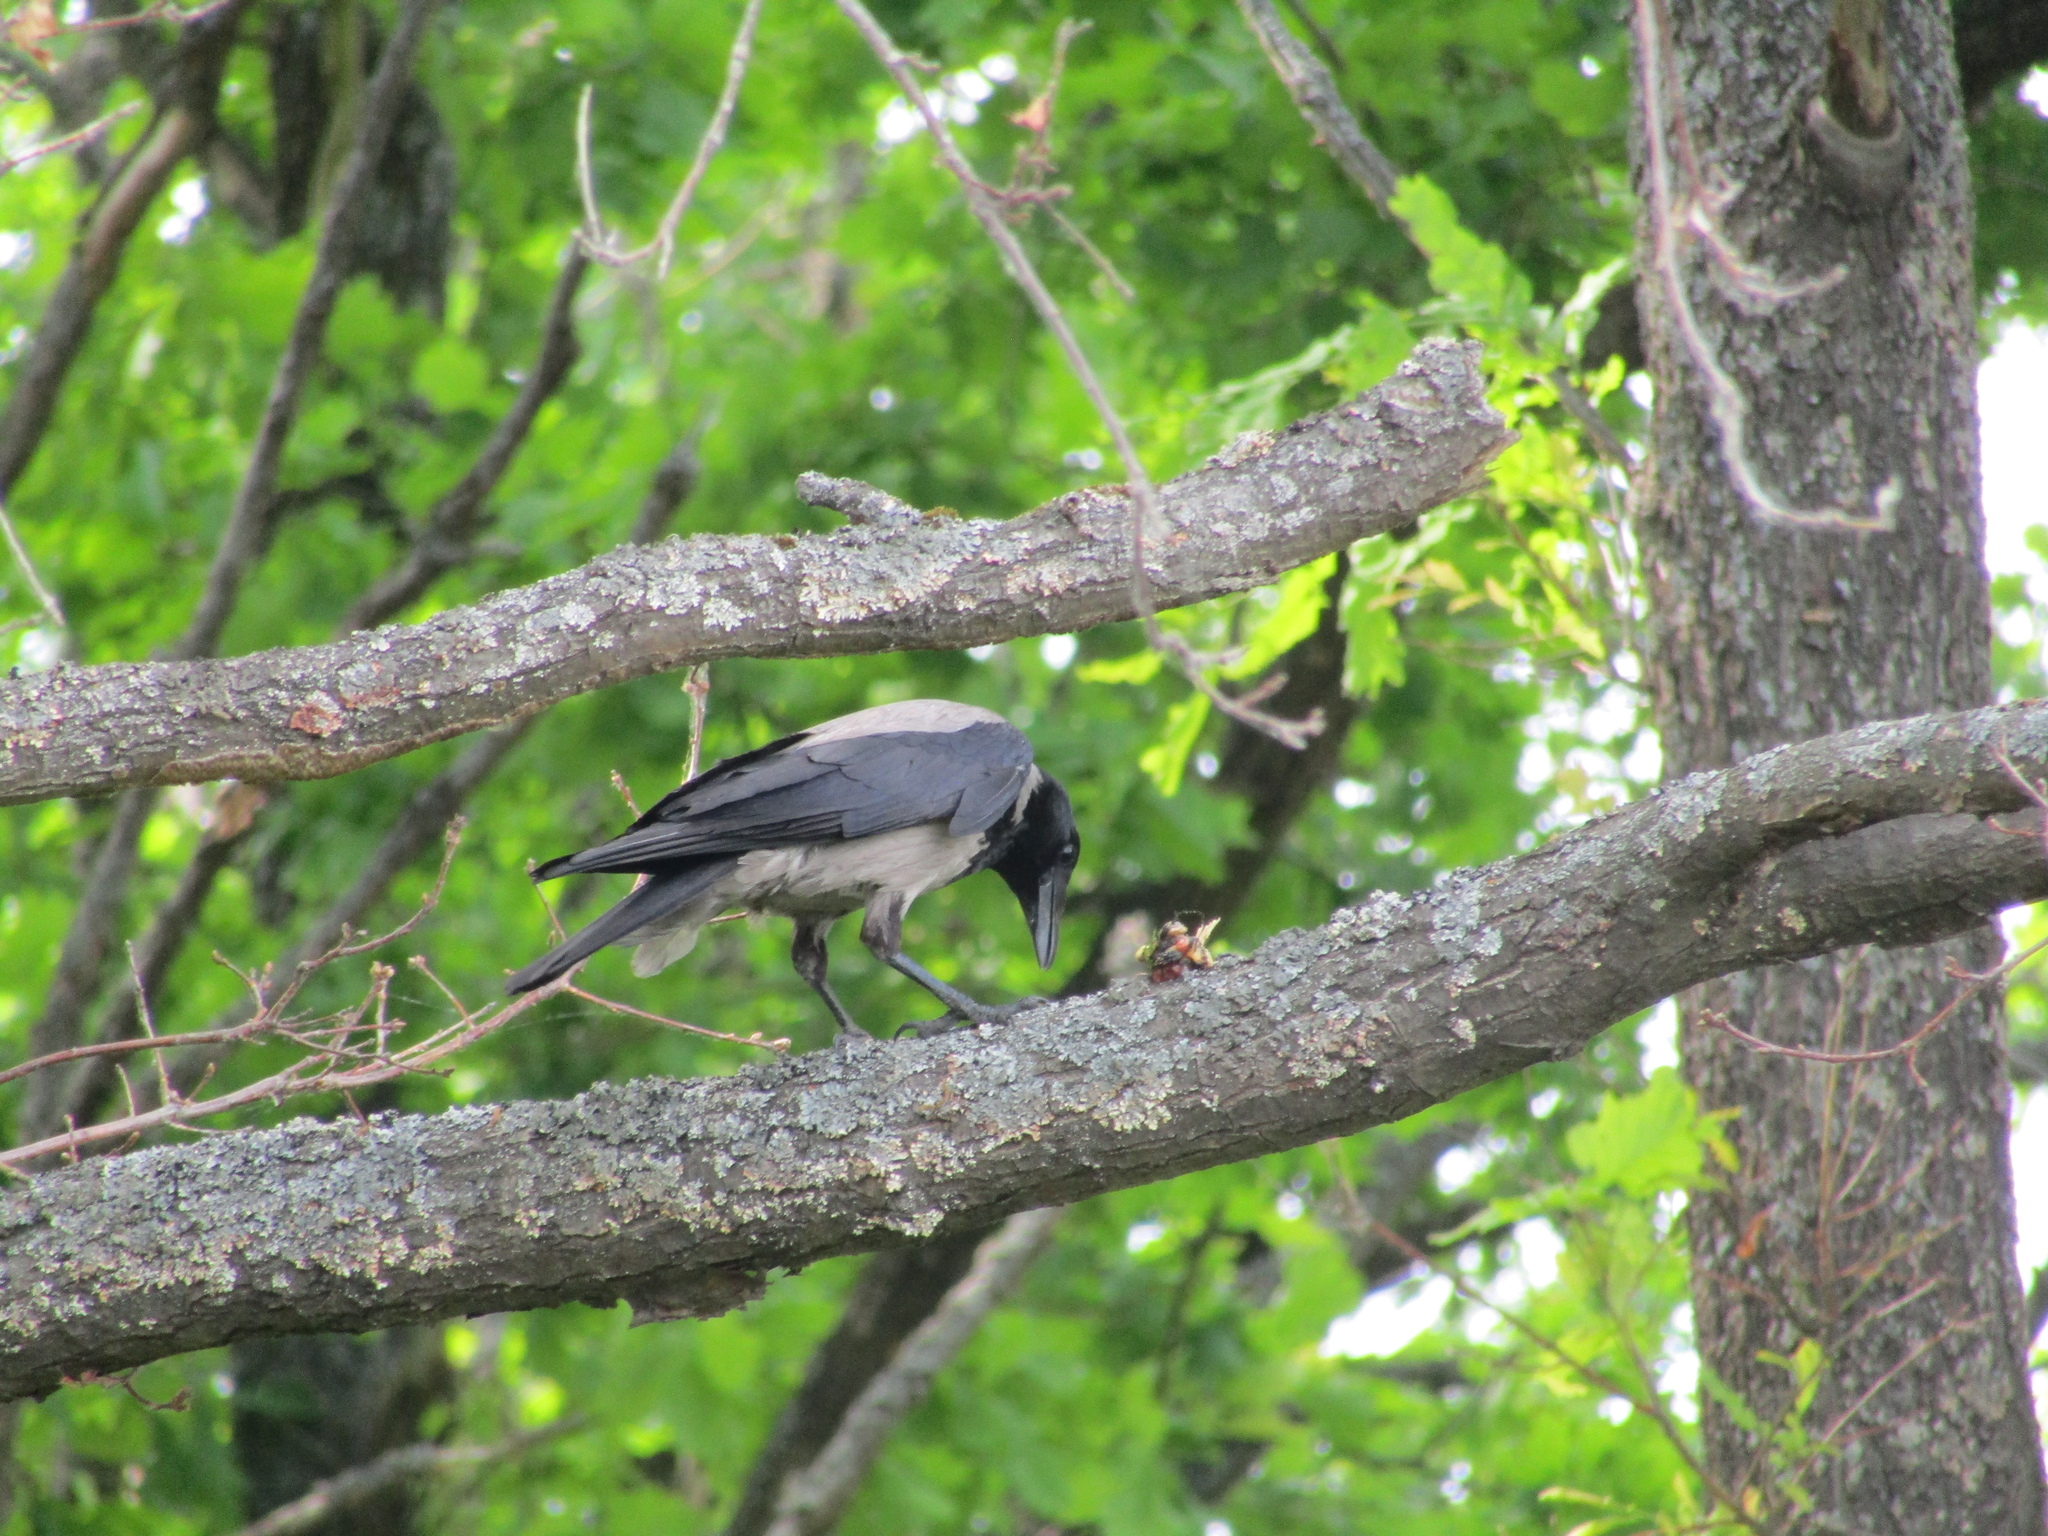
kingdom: Animalia
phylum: Chordata
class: Aves
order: Passeriformes
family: Corvidae
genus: Corvus
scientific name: Corvus cornix
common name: Hooded crow
